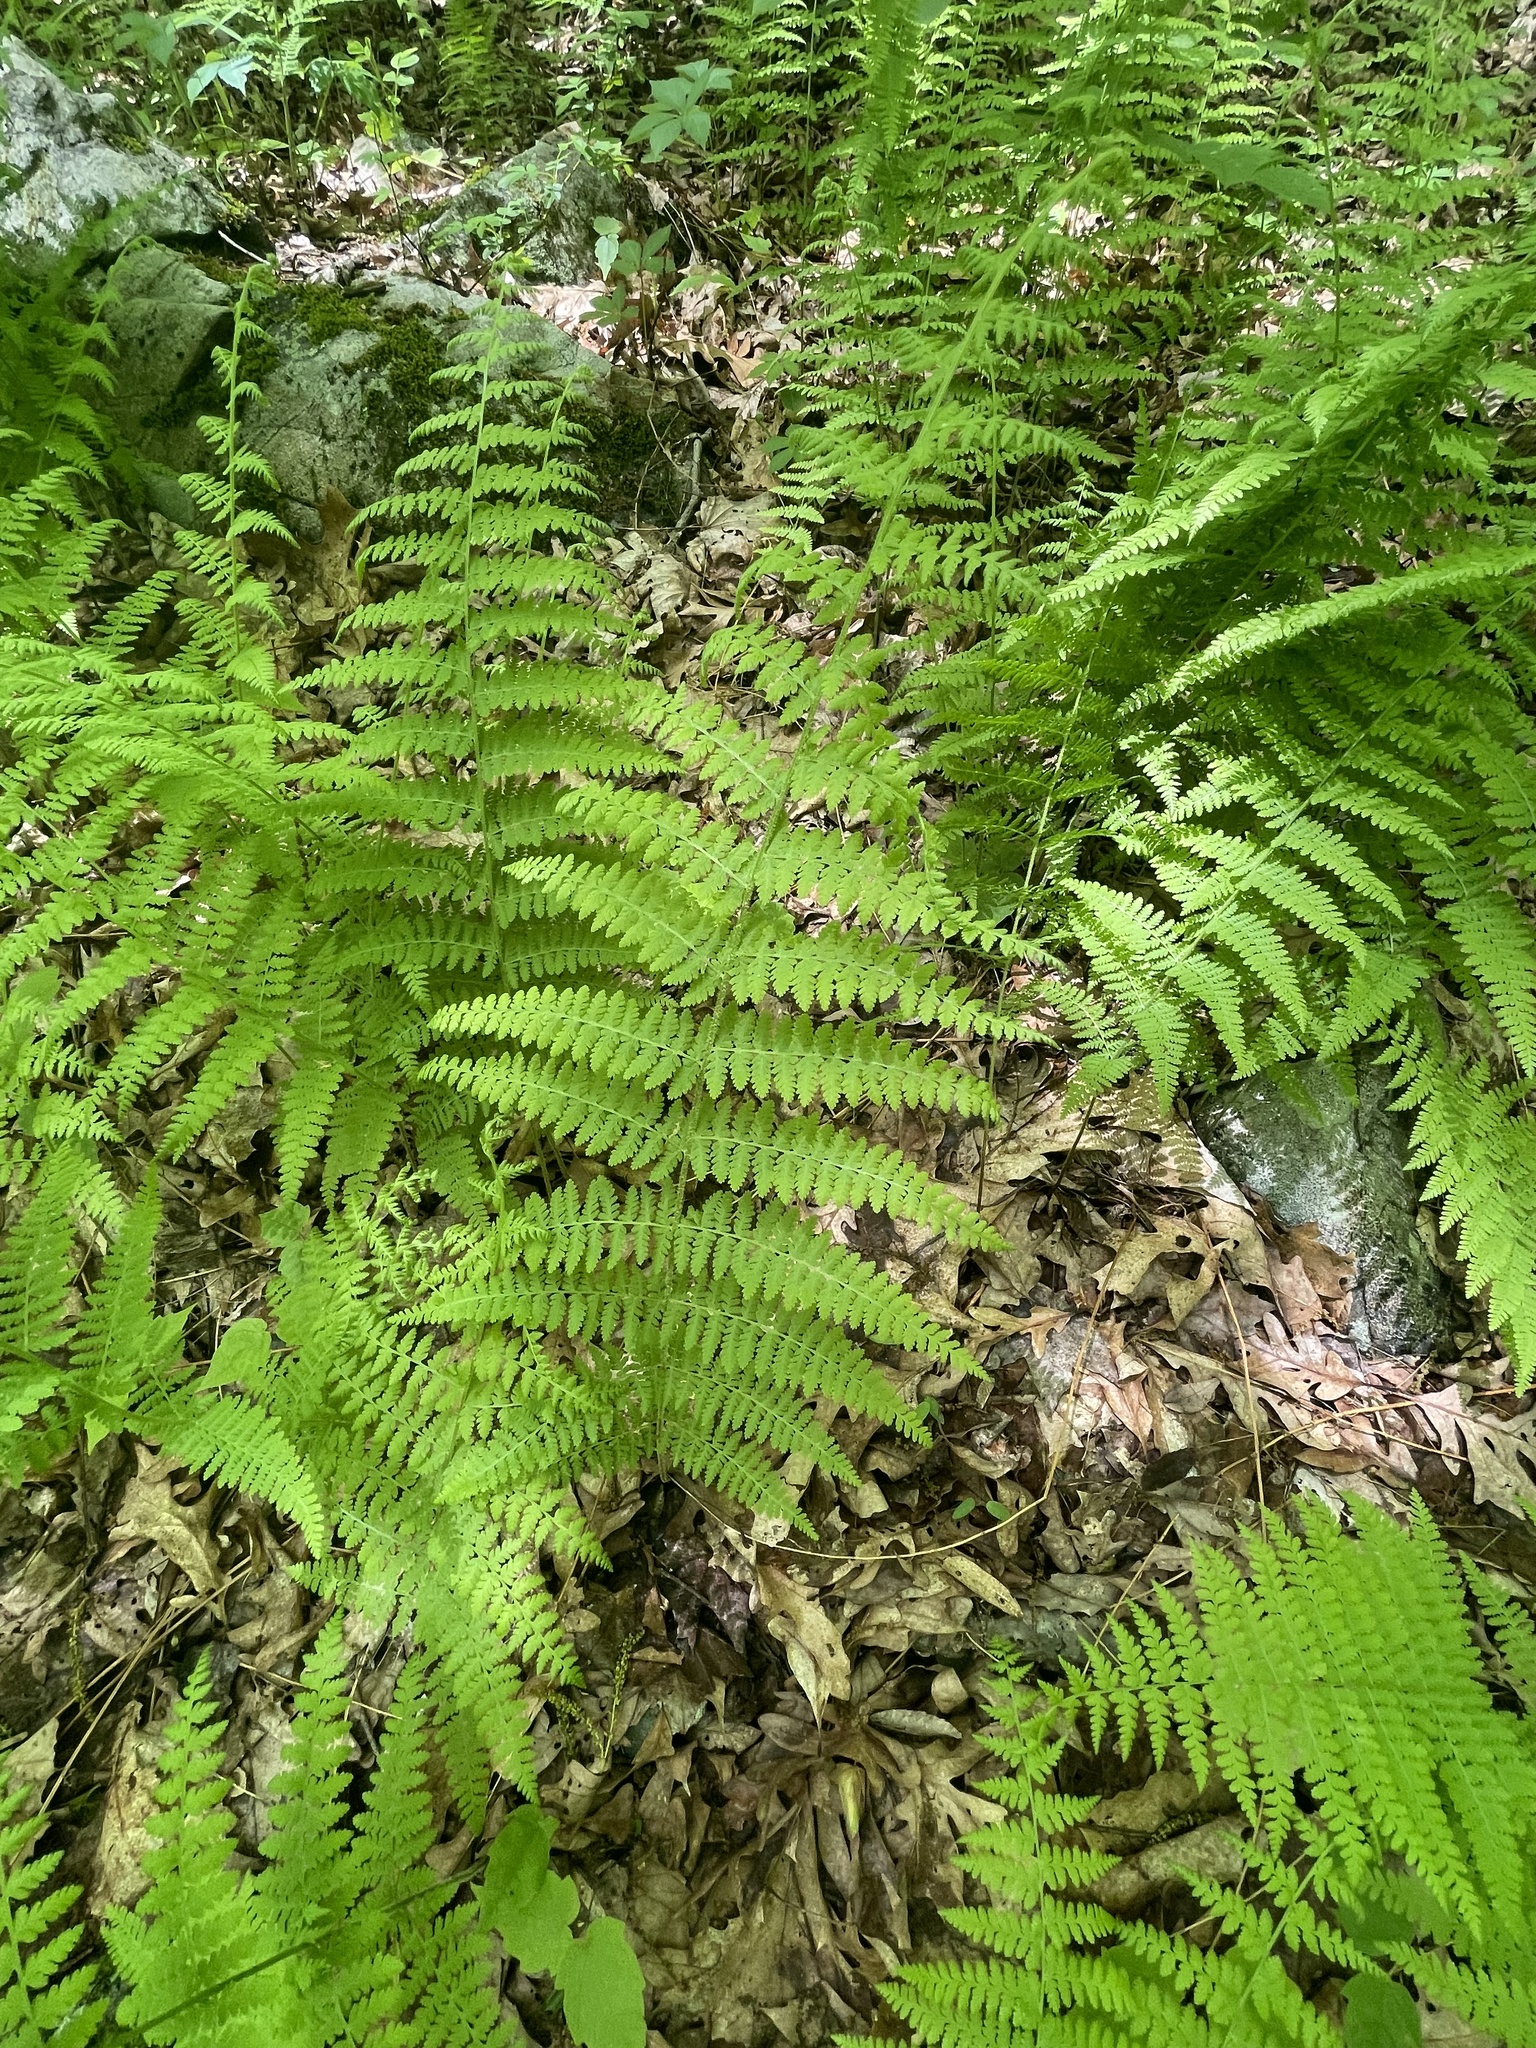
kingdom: Plantae
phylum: Tracheophyta
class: Polypodiopsida
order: Polypodiales
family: Dennstaedtiaceae
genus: Sitobolium
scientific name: Sitobolium punctilobum
